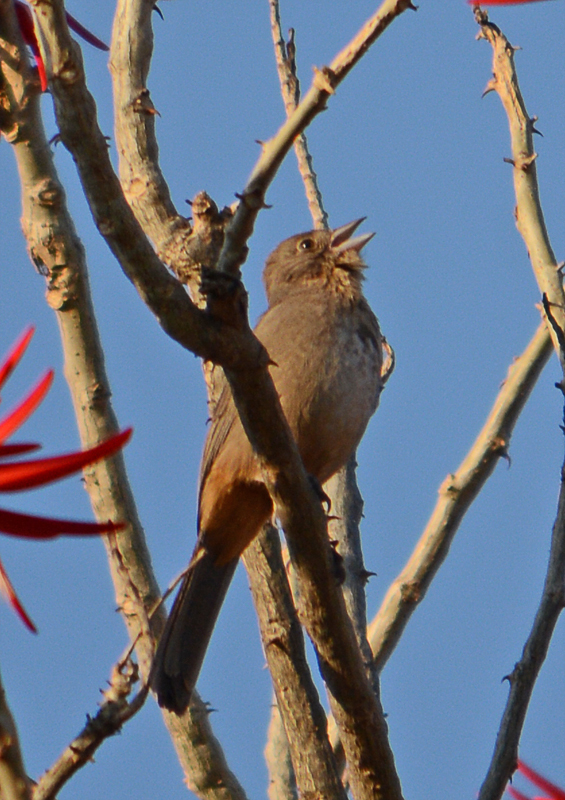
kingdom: Animalia
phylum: Chordata
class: Aves
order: Passeriformes
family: Passerellidae
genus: Melozone
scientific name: Melozone fusca
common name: Canyon towhee
